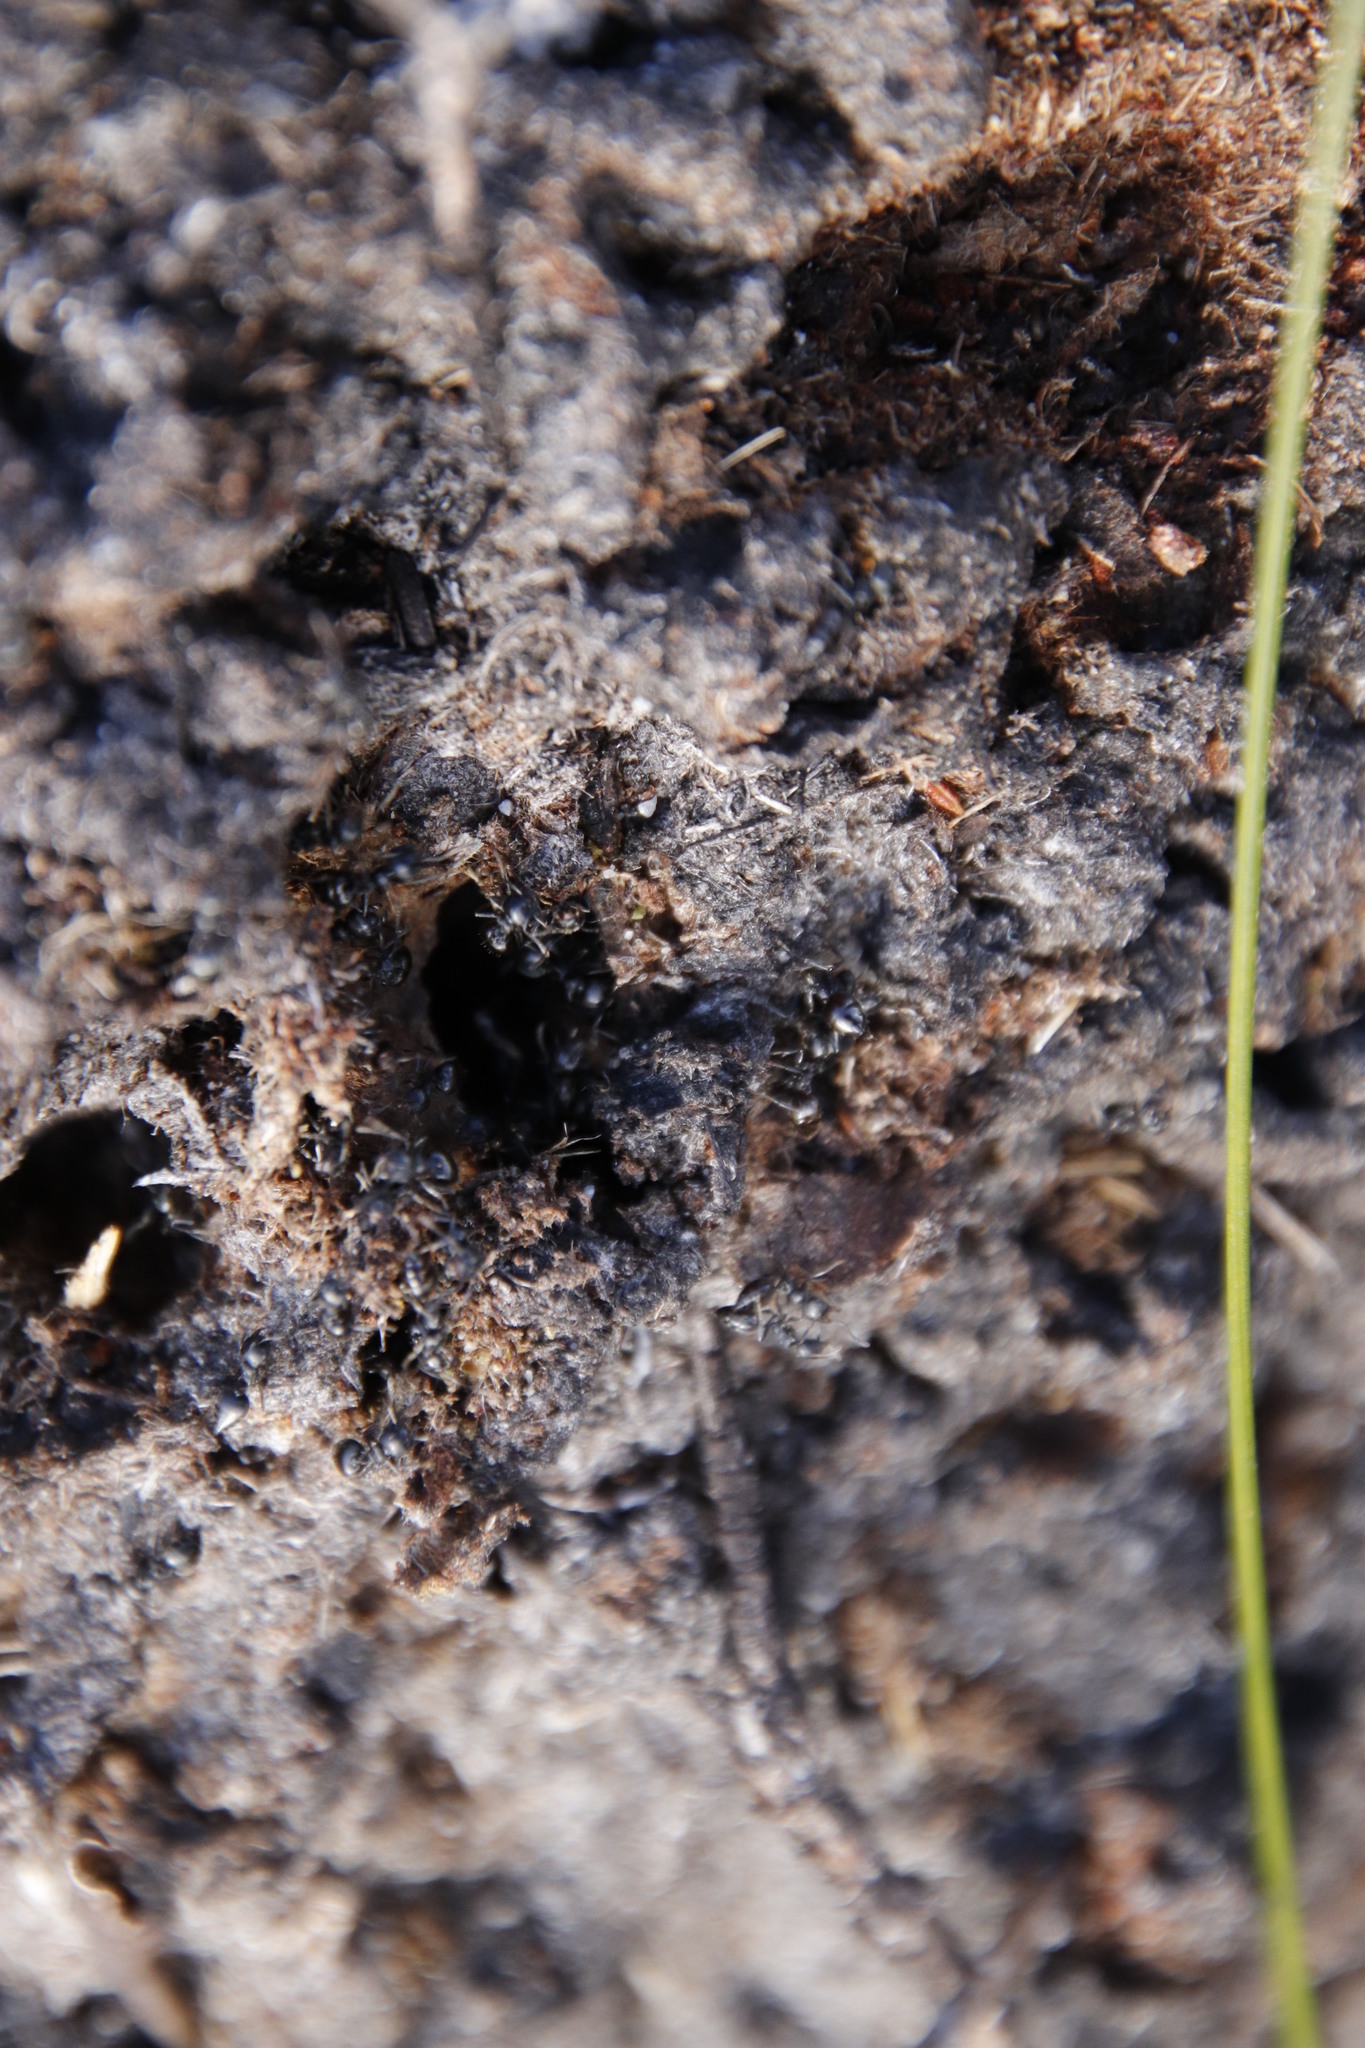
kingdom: Animalia
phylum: Arthropoda
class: Insecta
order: Hymenoptera
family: Formicidae
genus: Crematogaster
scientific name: Crematogaster peringueyi
